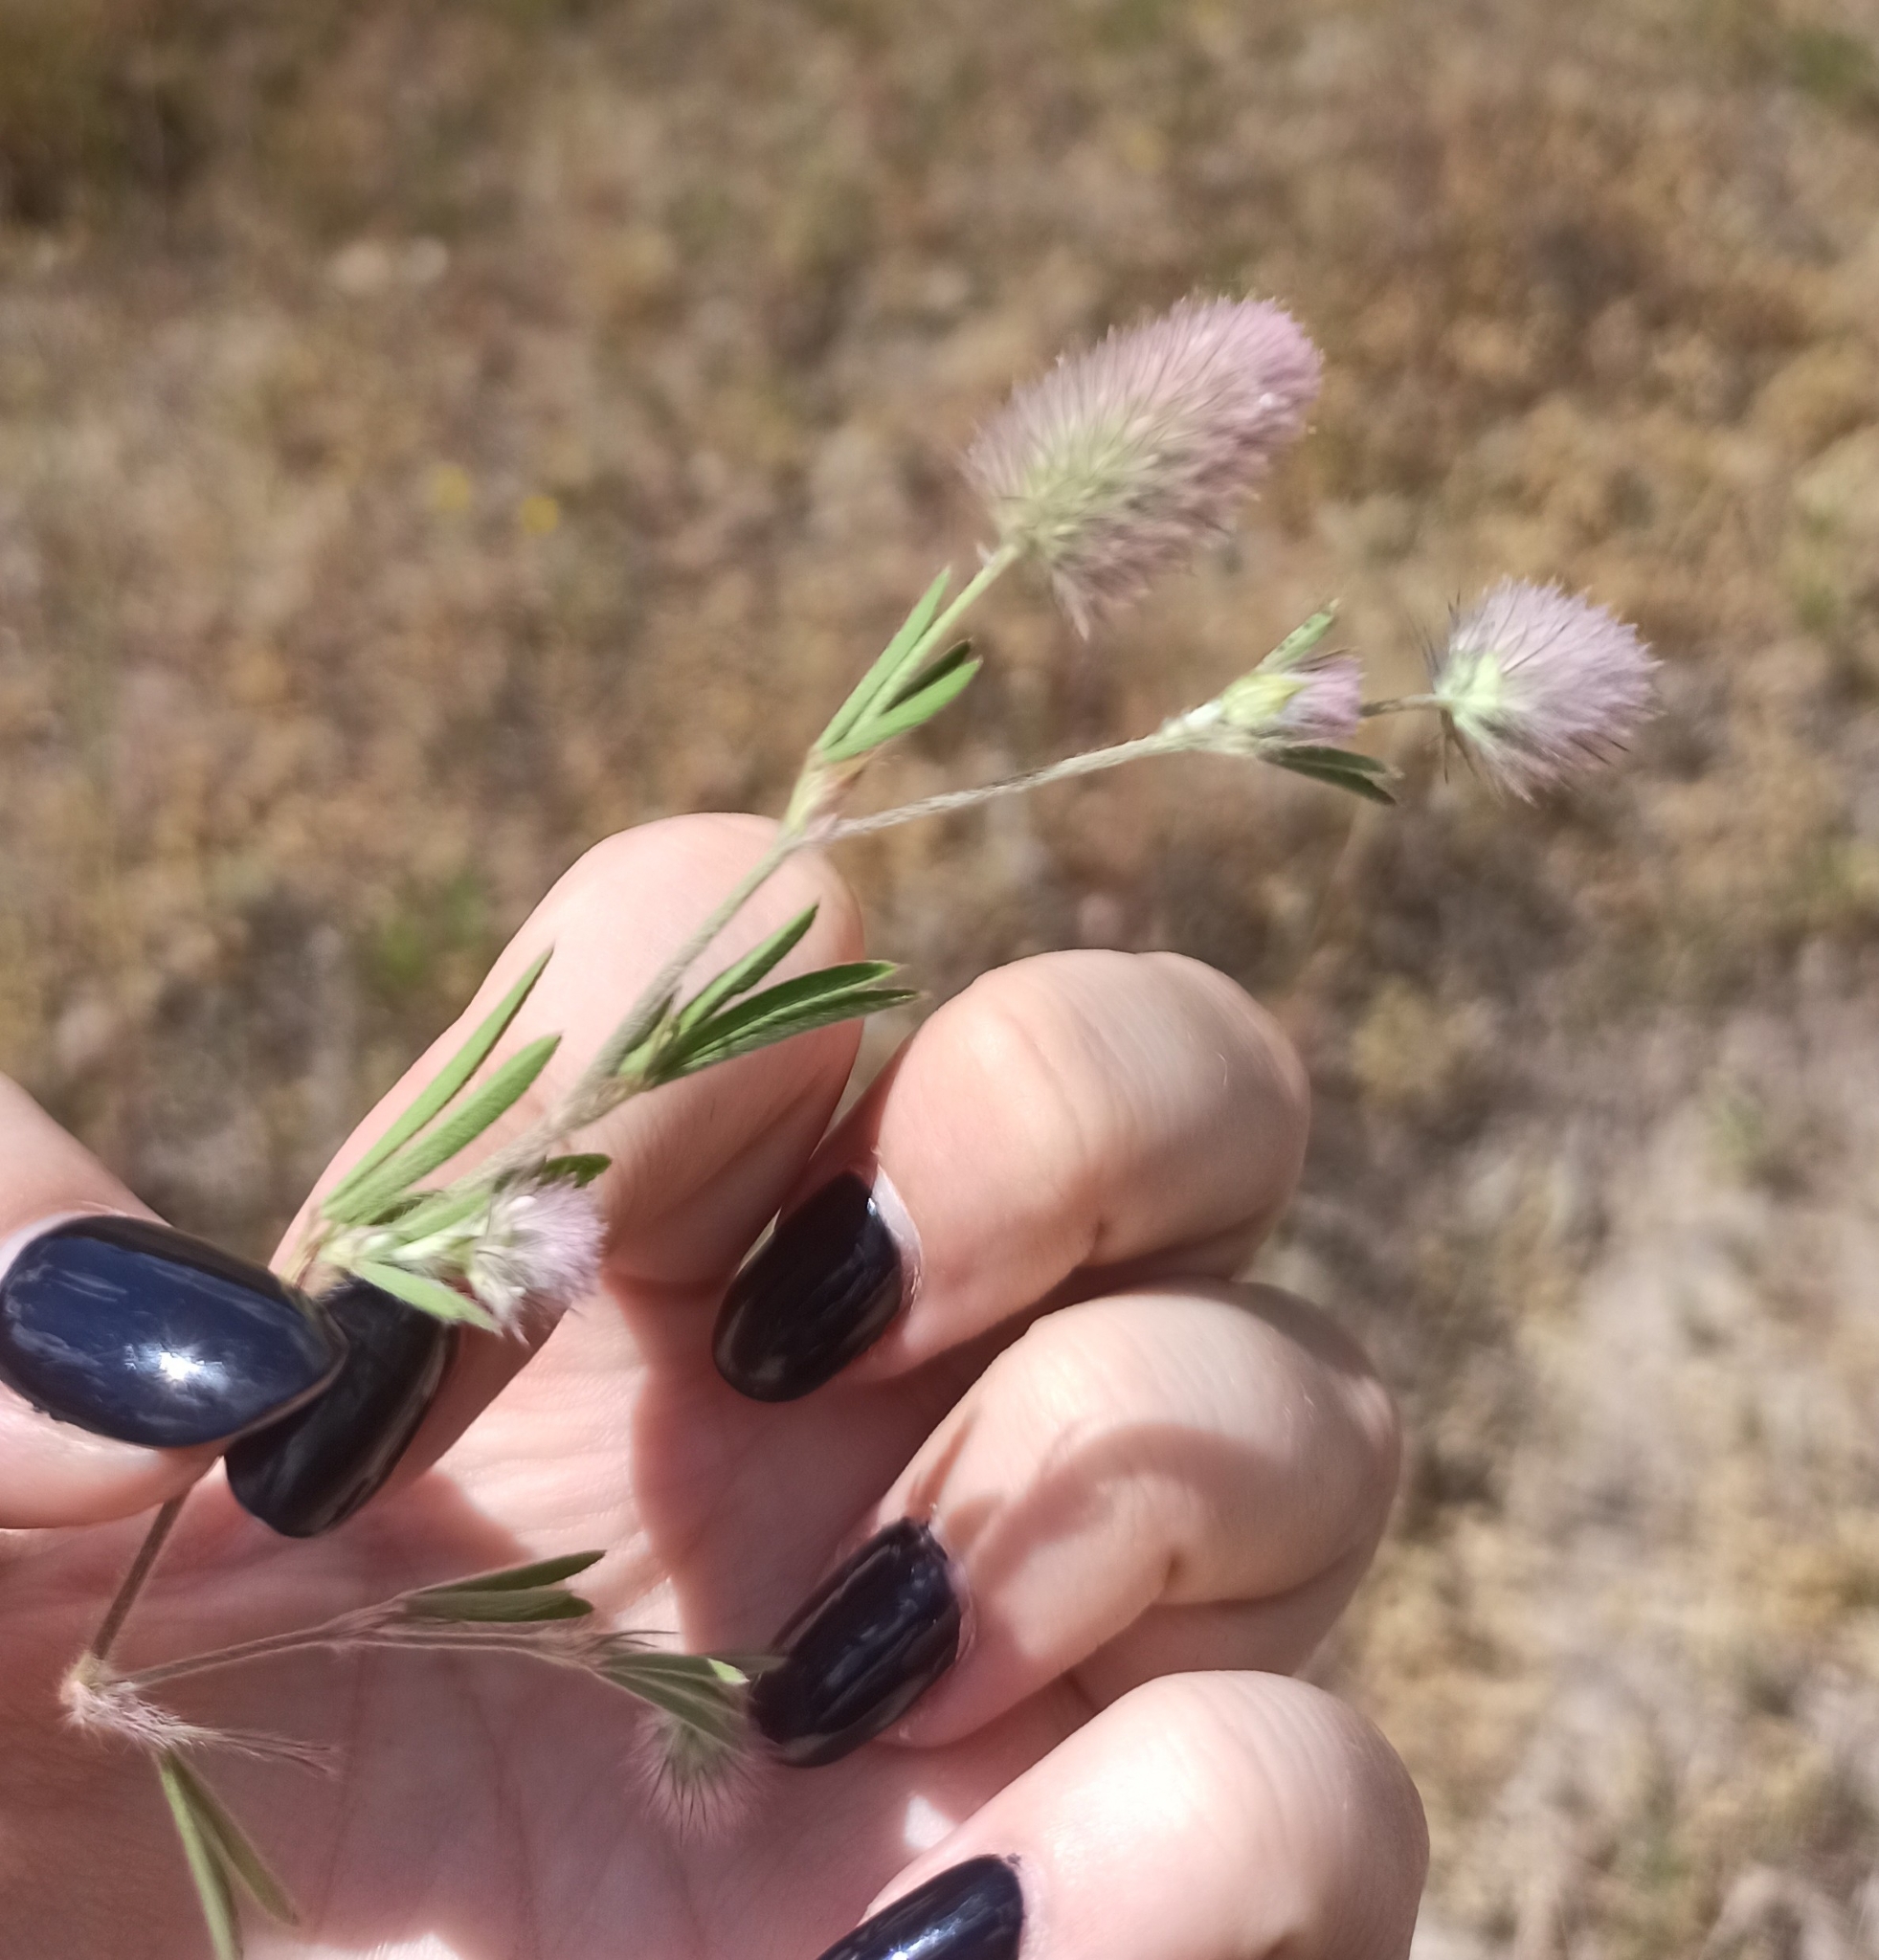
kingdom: Plantae
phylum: Tracheophyta
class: Magnoliopsida
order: Fabales
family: Fabaceae
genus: Trifolium
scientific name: Trifolium arvense
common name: Hare's-foot clover
